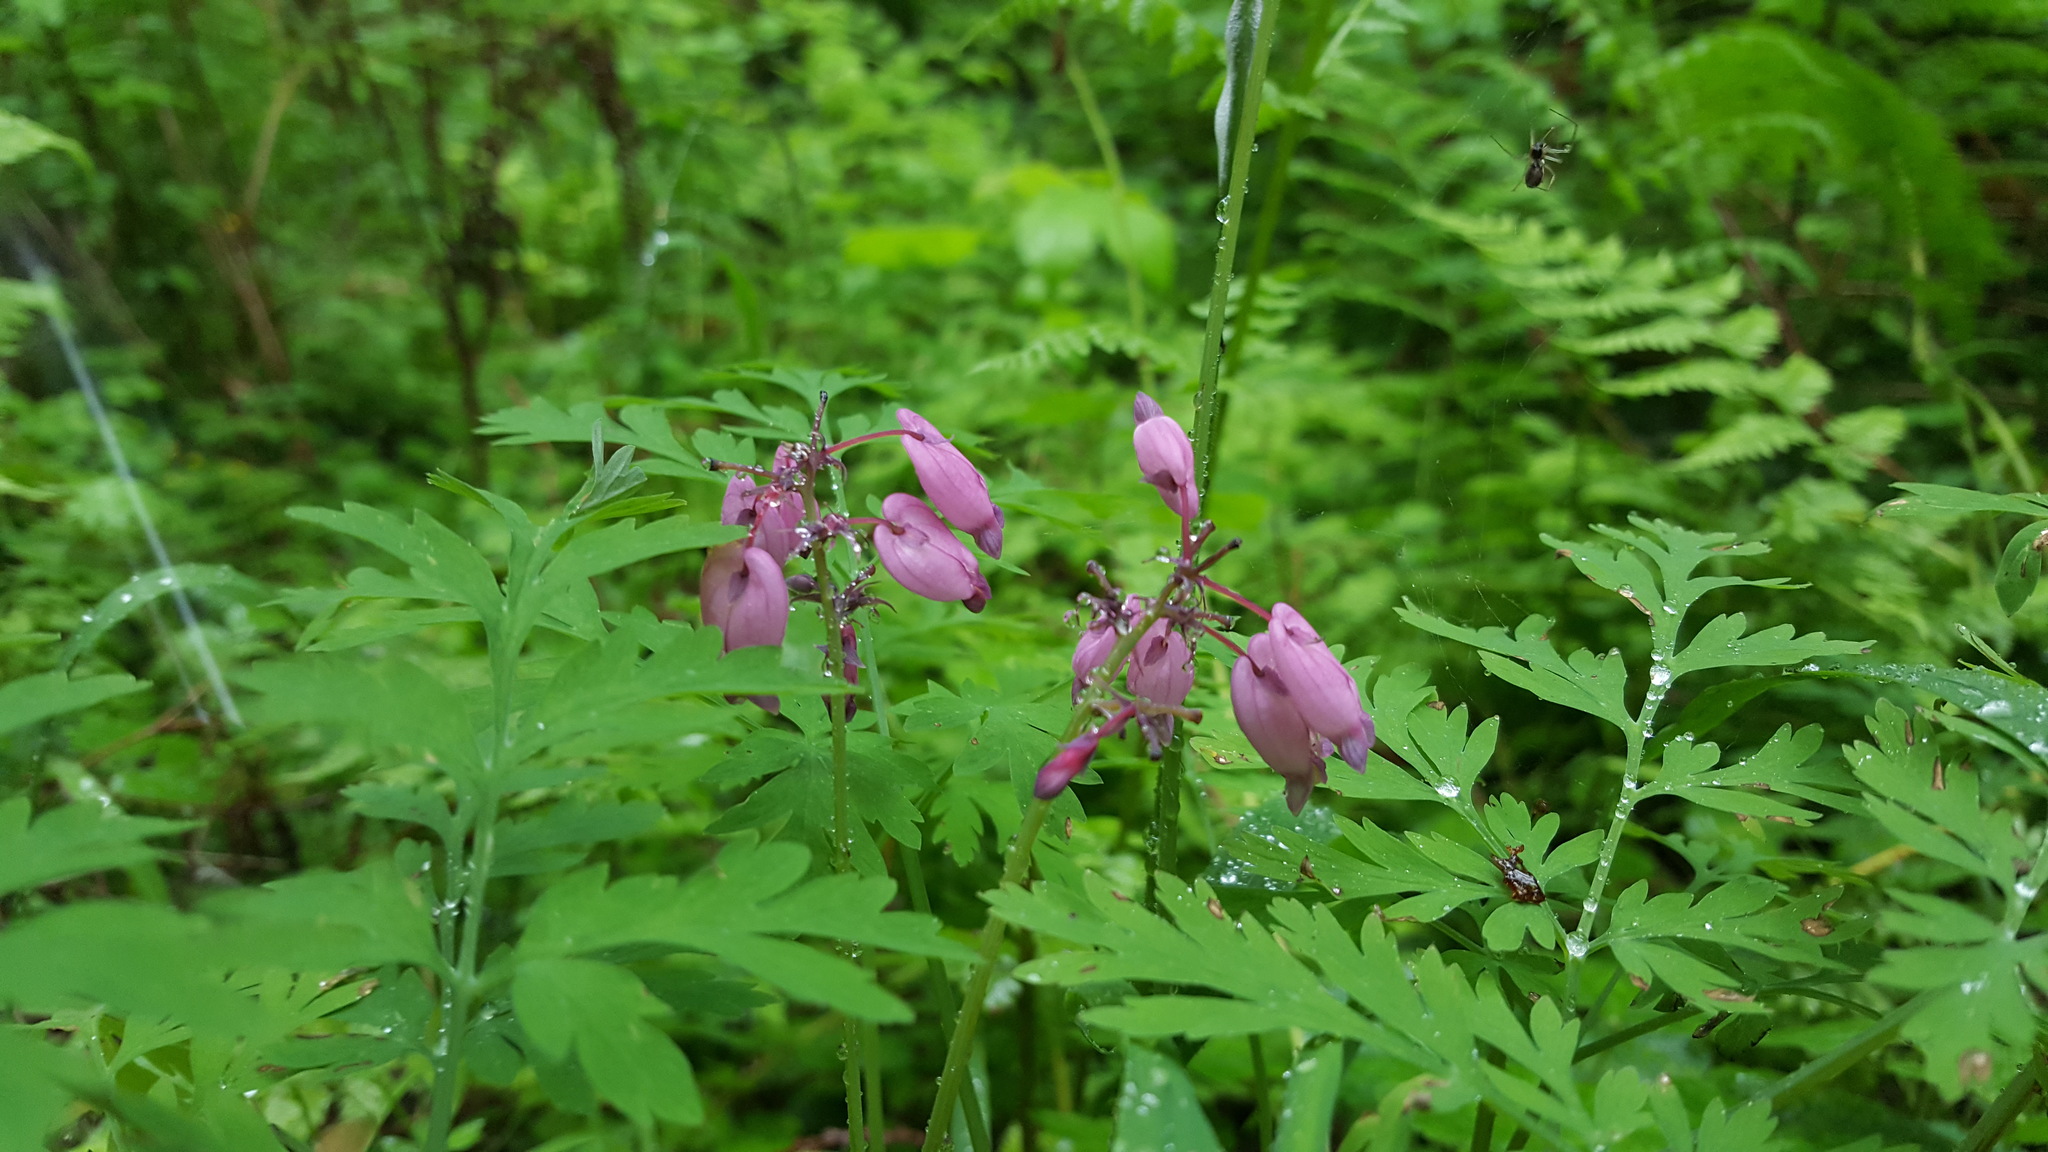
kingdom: Plantae
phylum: Tracheophyta
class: Magnoliopsida
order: Ranunculales
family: Papaveraceae
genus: Dicentra
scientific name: Dicentra formosa
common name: Bleeding-heart
